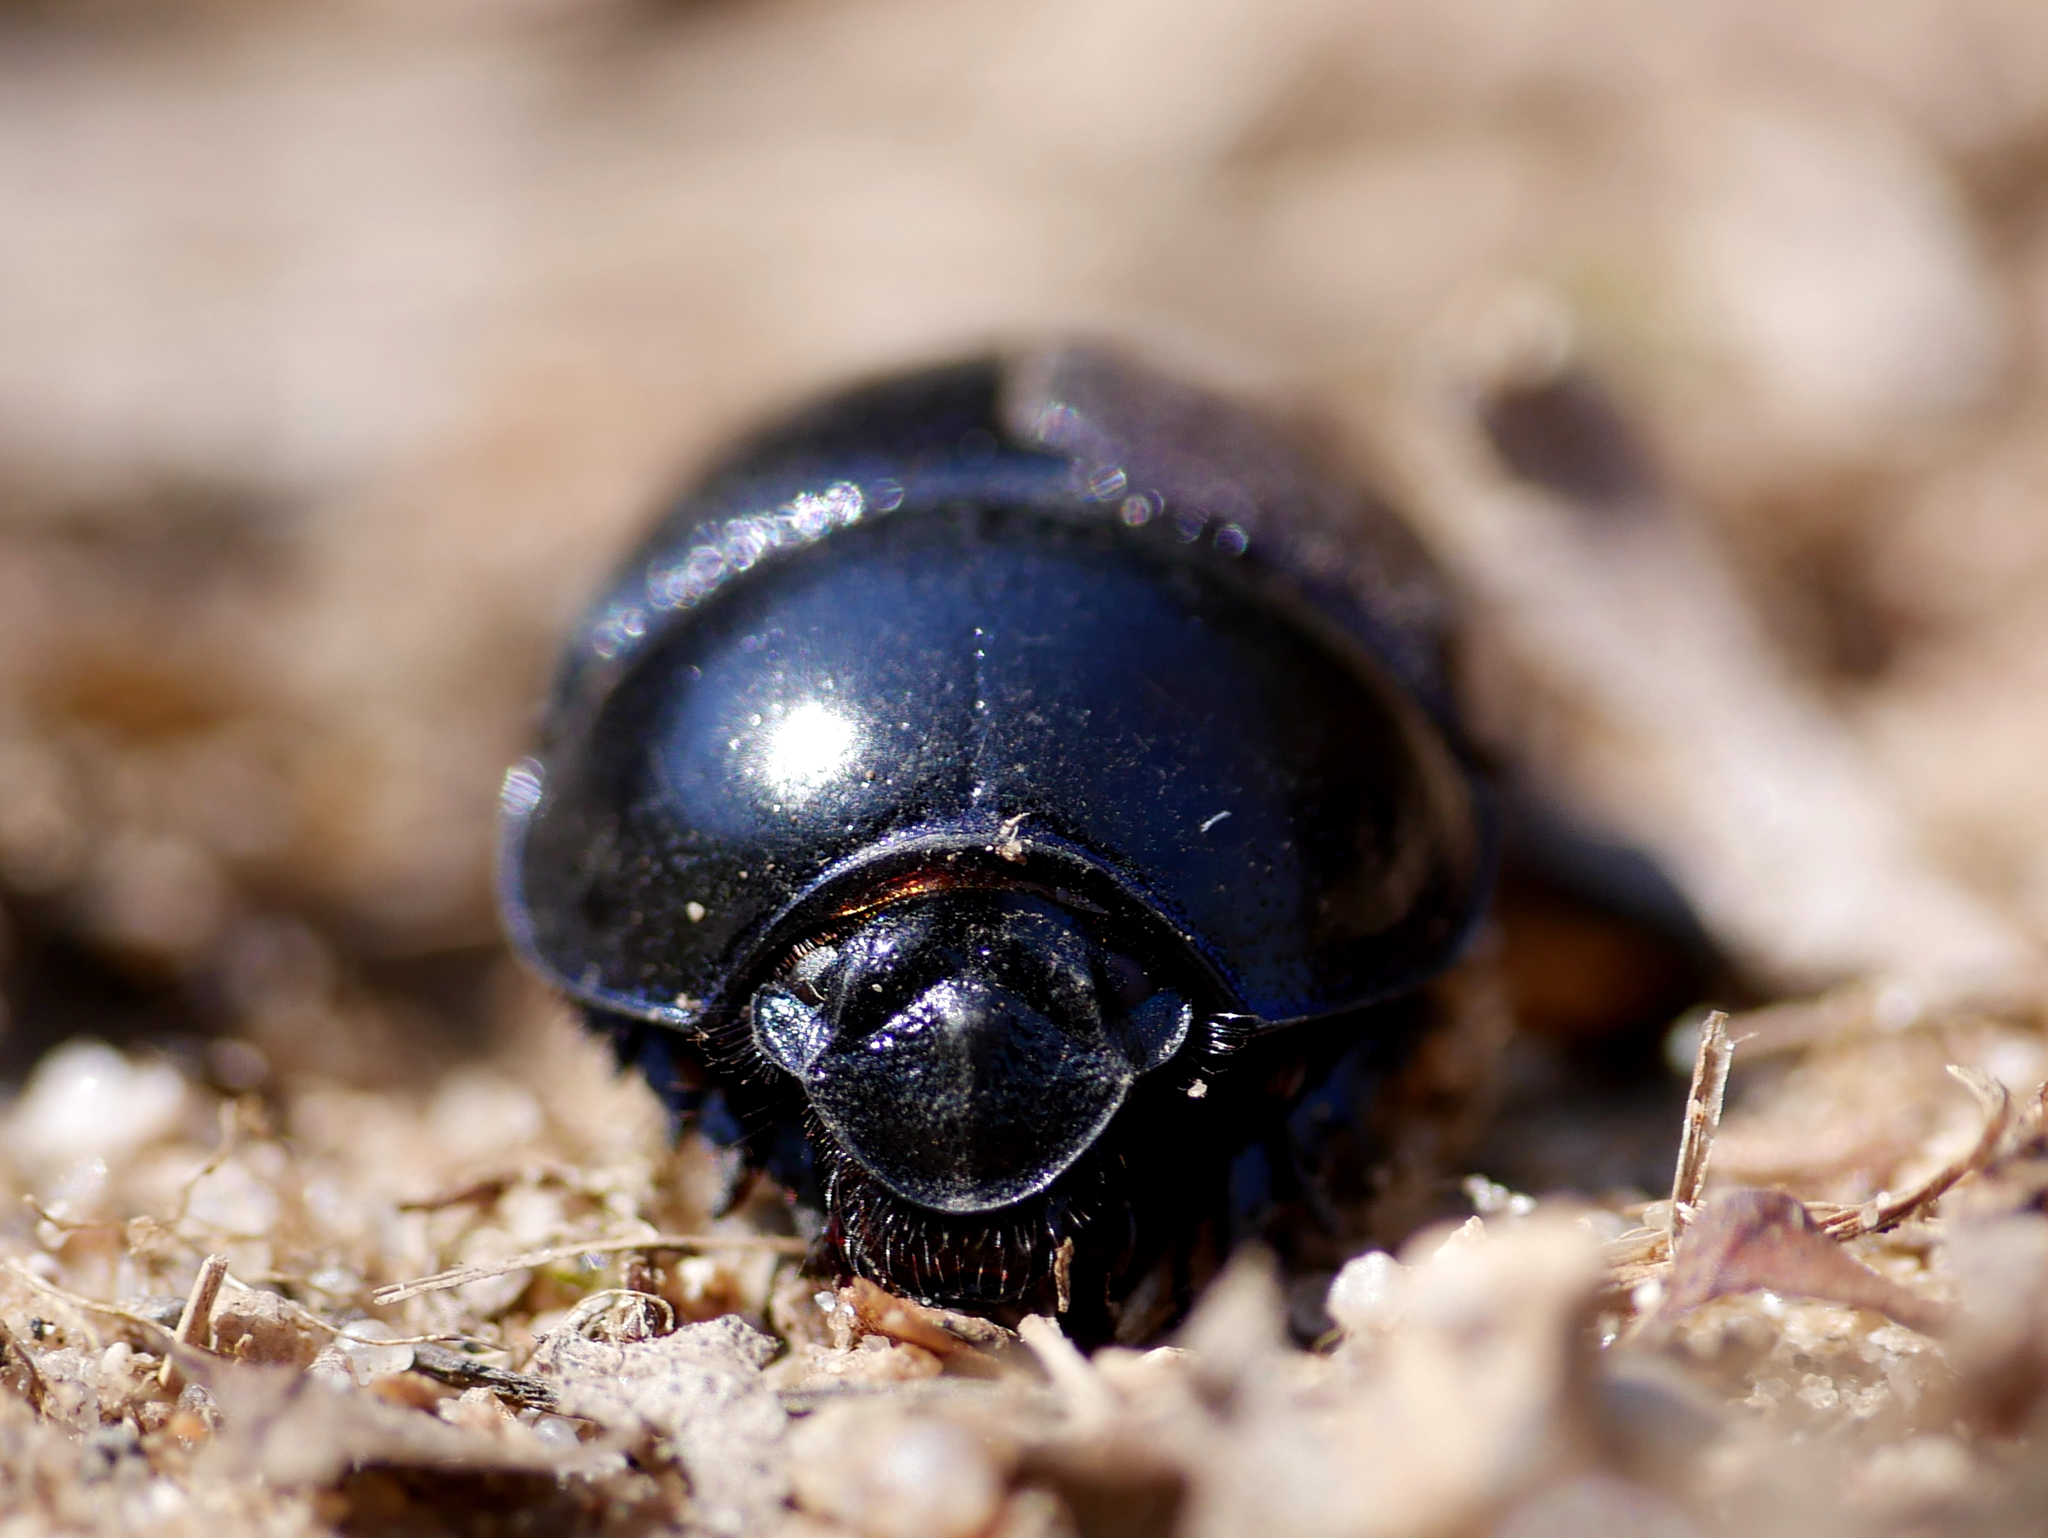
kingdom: Animalia
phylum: Arthropoda
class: Insecta
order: Coleoptera
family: Geotrupidae
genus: Anoplotrupes
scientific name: Anoplotrupes stercorosus
